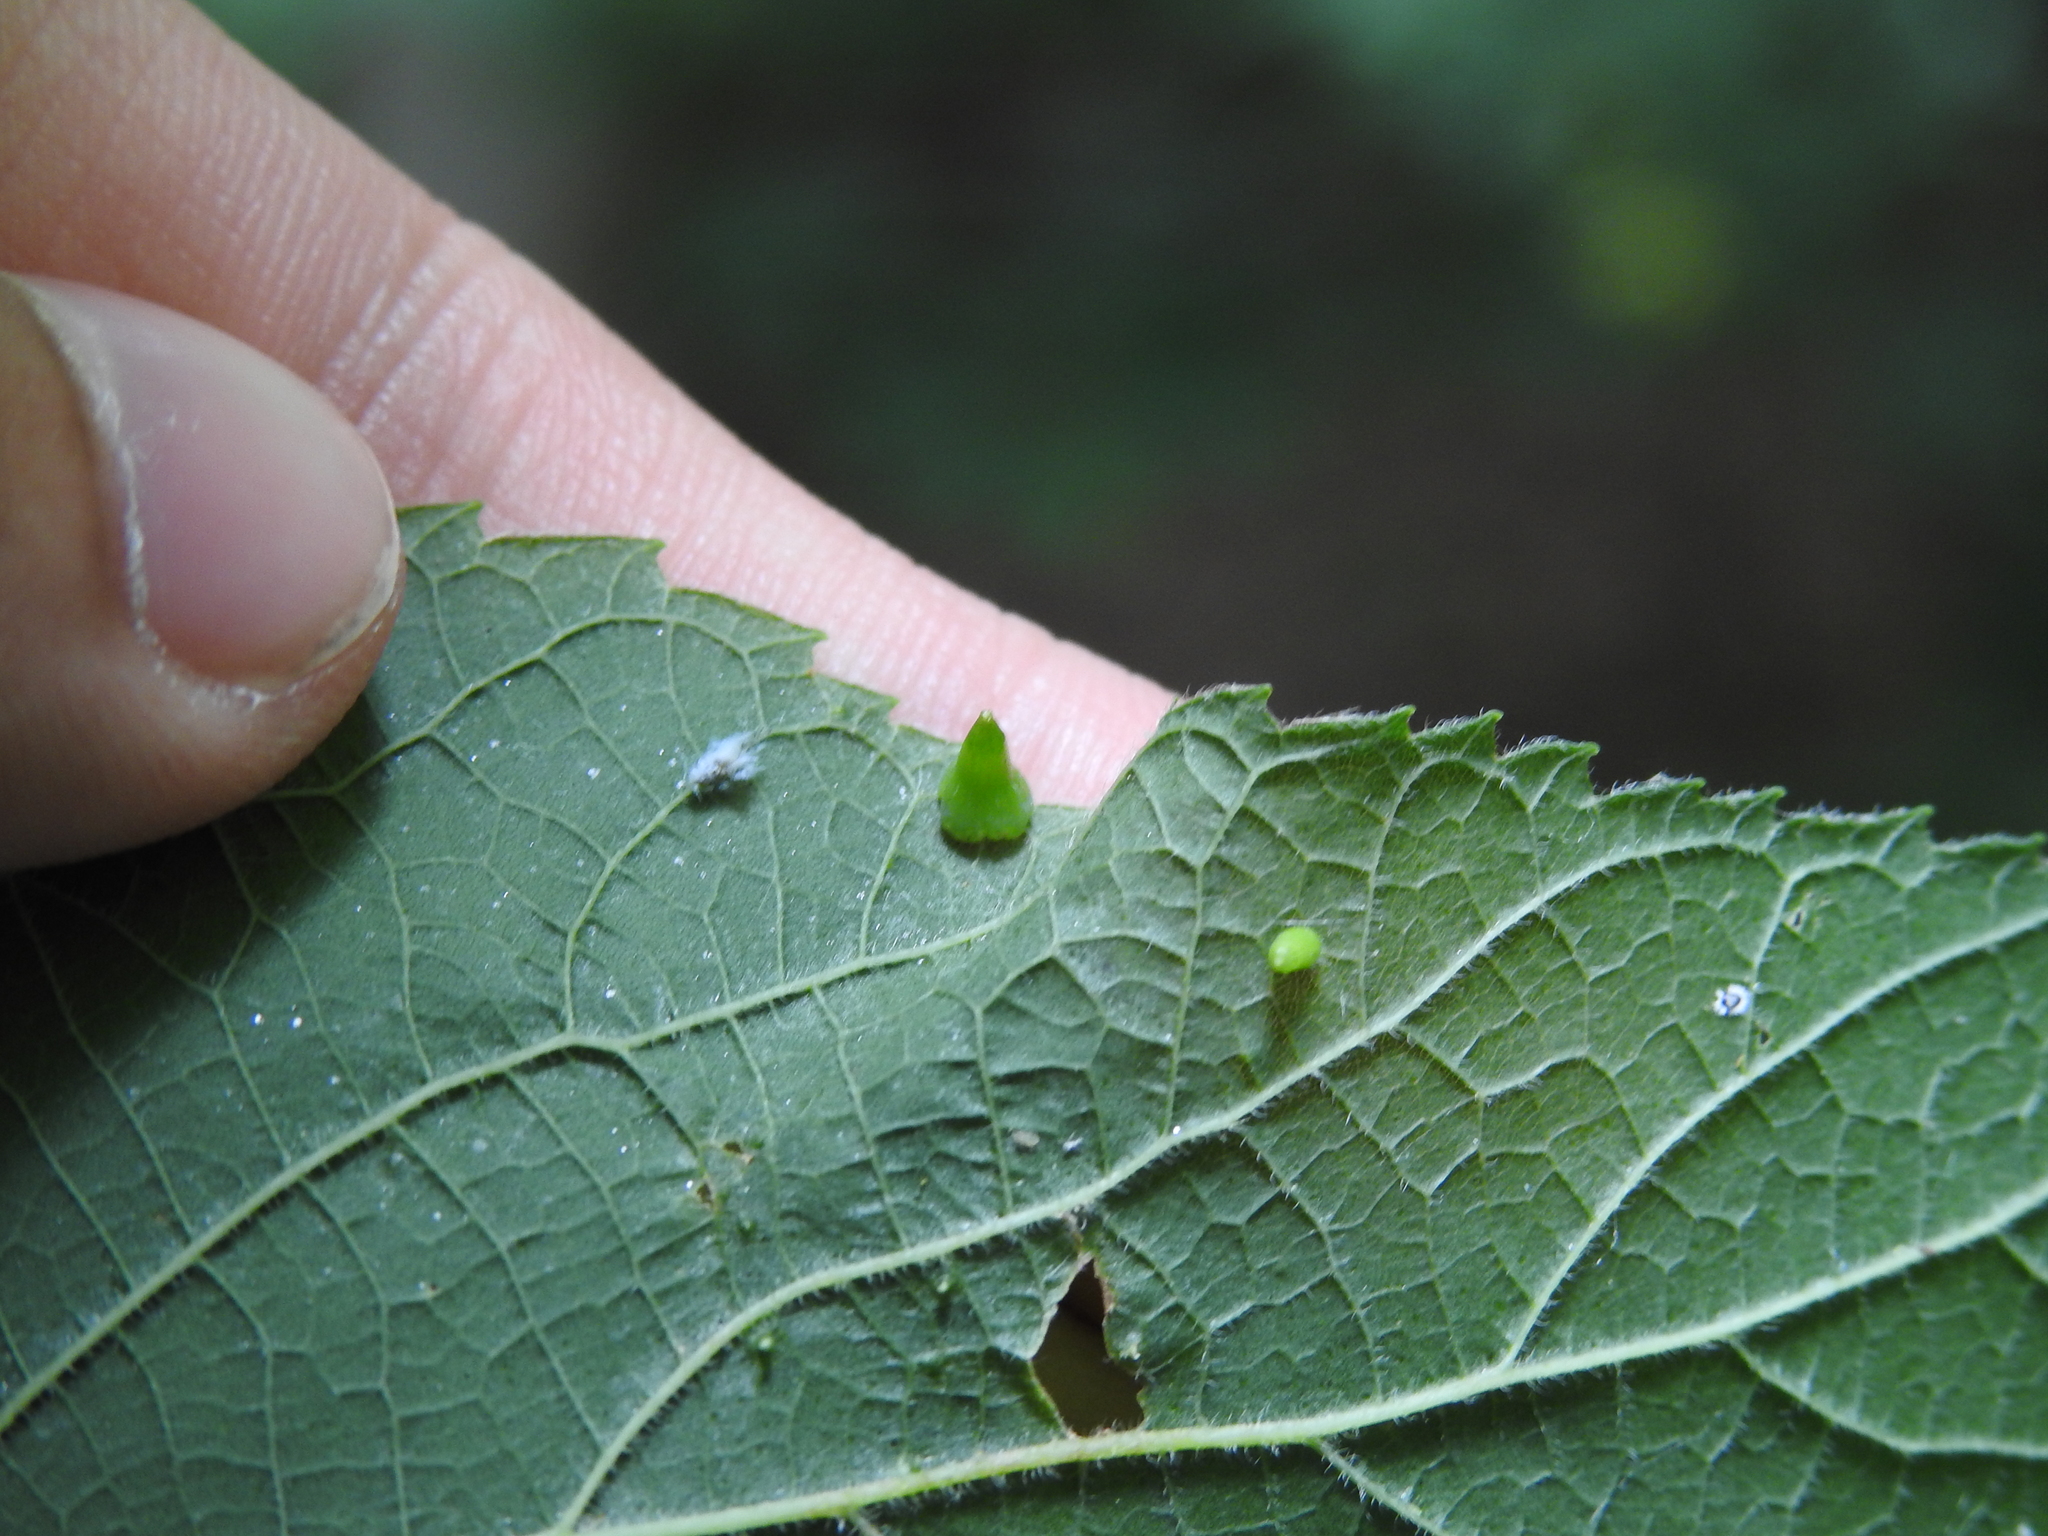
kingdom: Animalia
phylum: Arthropoda
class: Insecta
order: Diptera
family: Cecidomyiidae
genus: Celticecis
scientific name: Celticecis spiniformis
